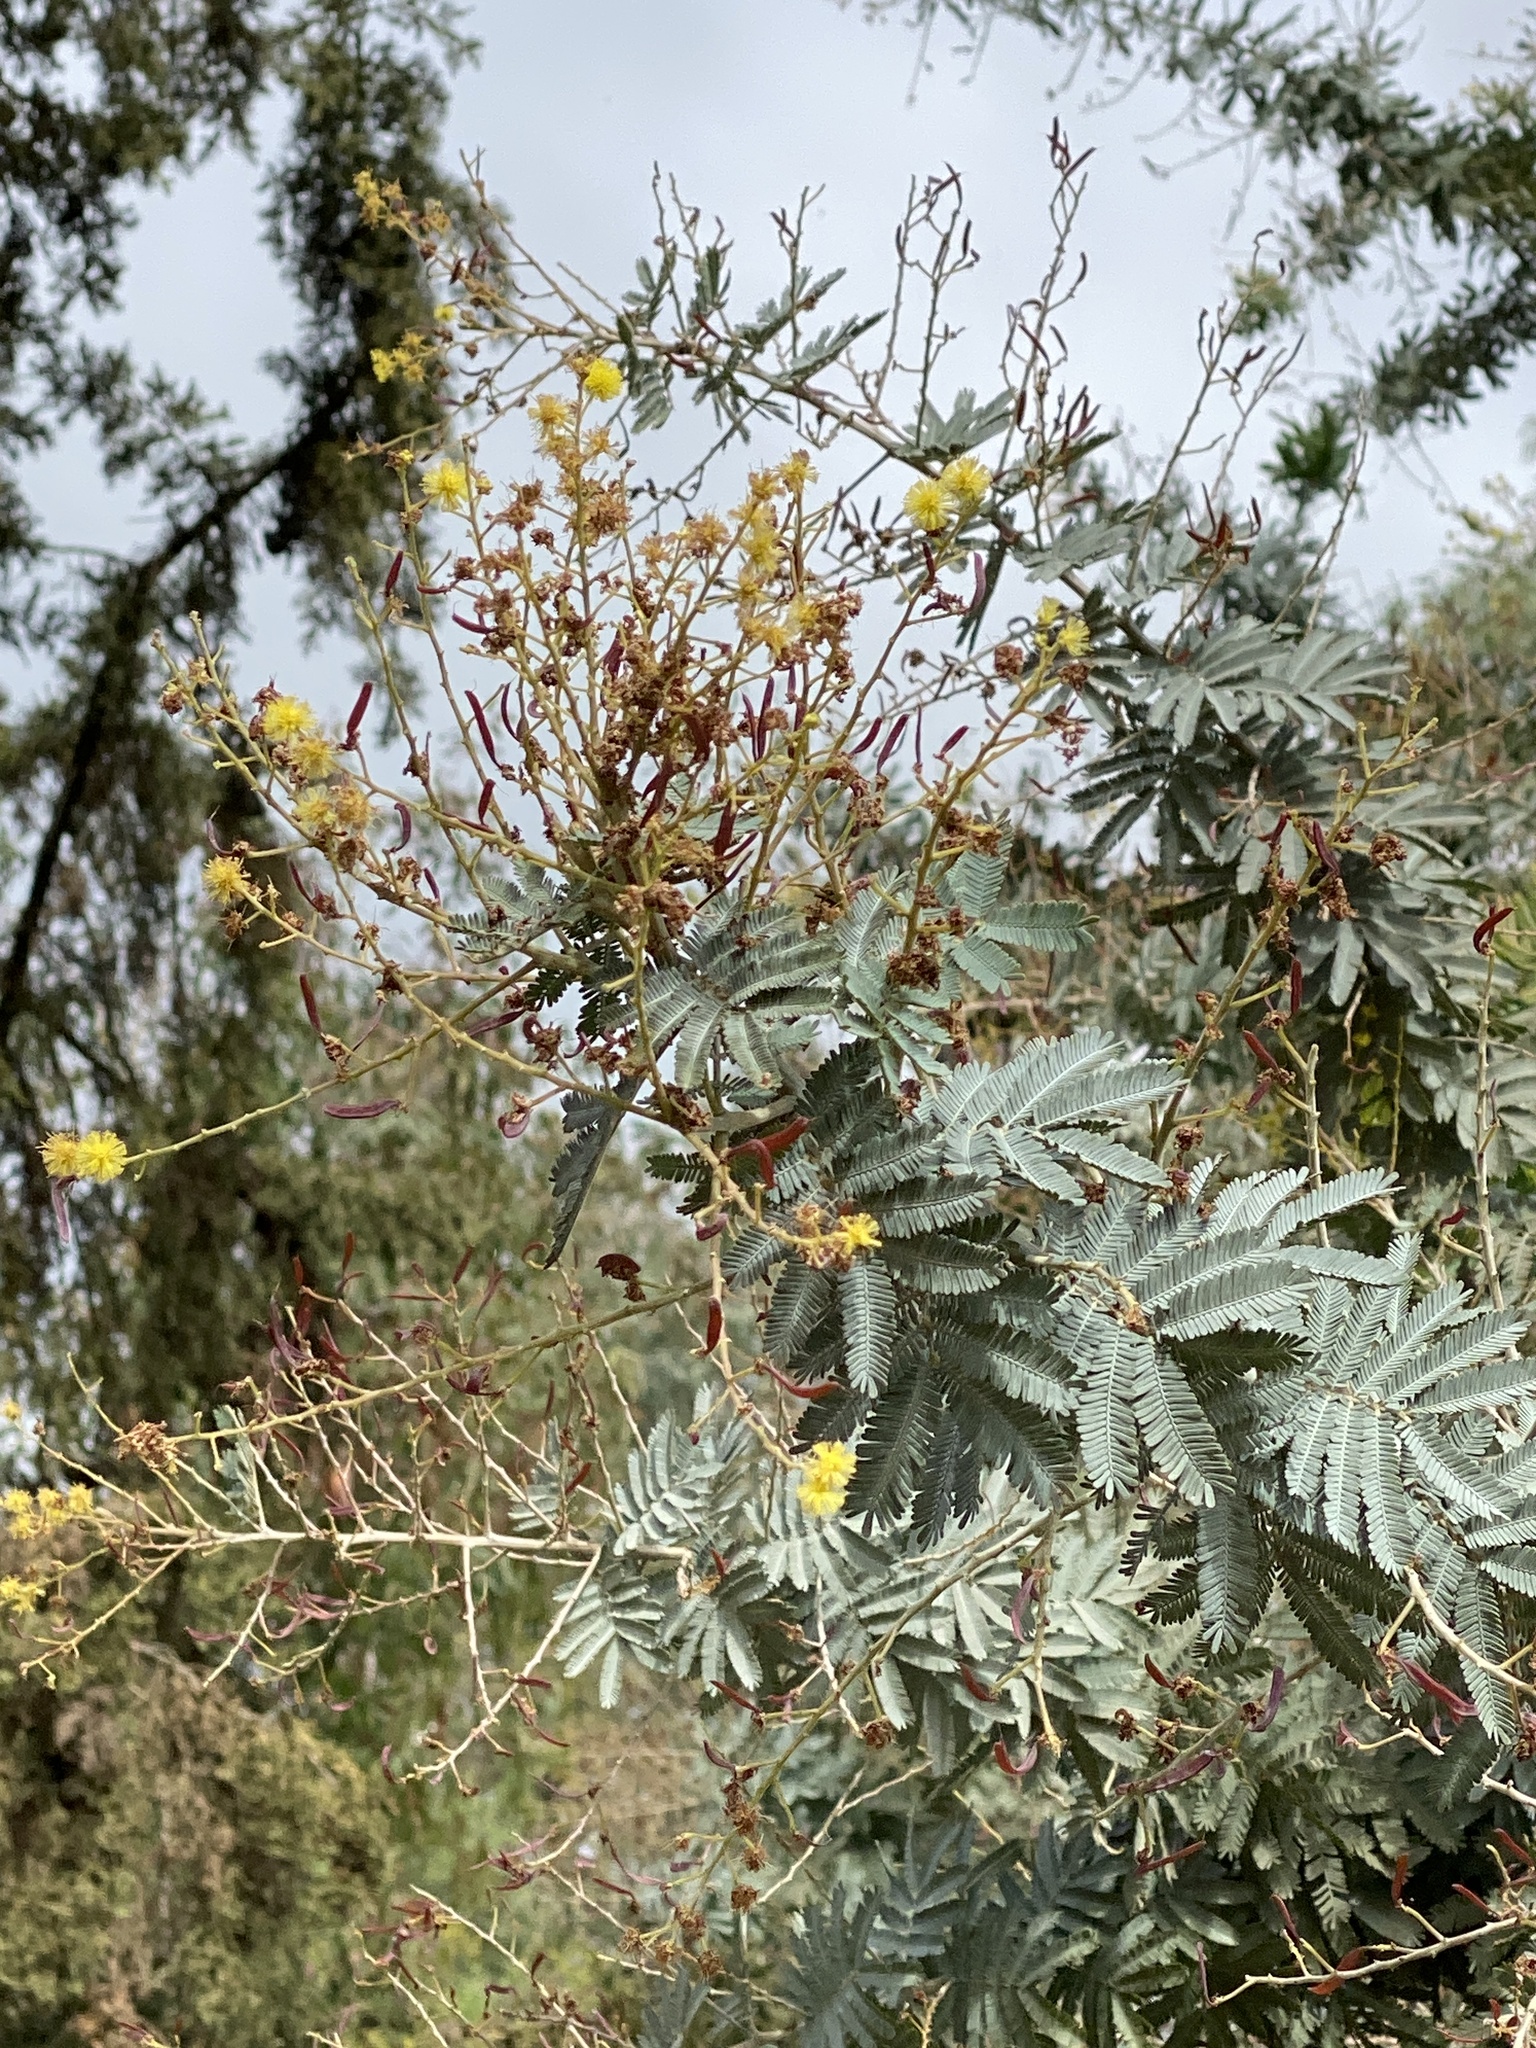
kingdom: Plantae
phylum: Tracheophyta
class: Magnoliopsida
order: Fabales
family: Fabaceae
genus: Acacia
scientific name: Acacia baileyana
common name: Cootamundra wattle
